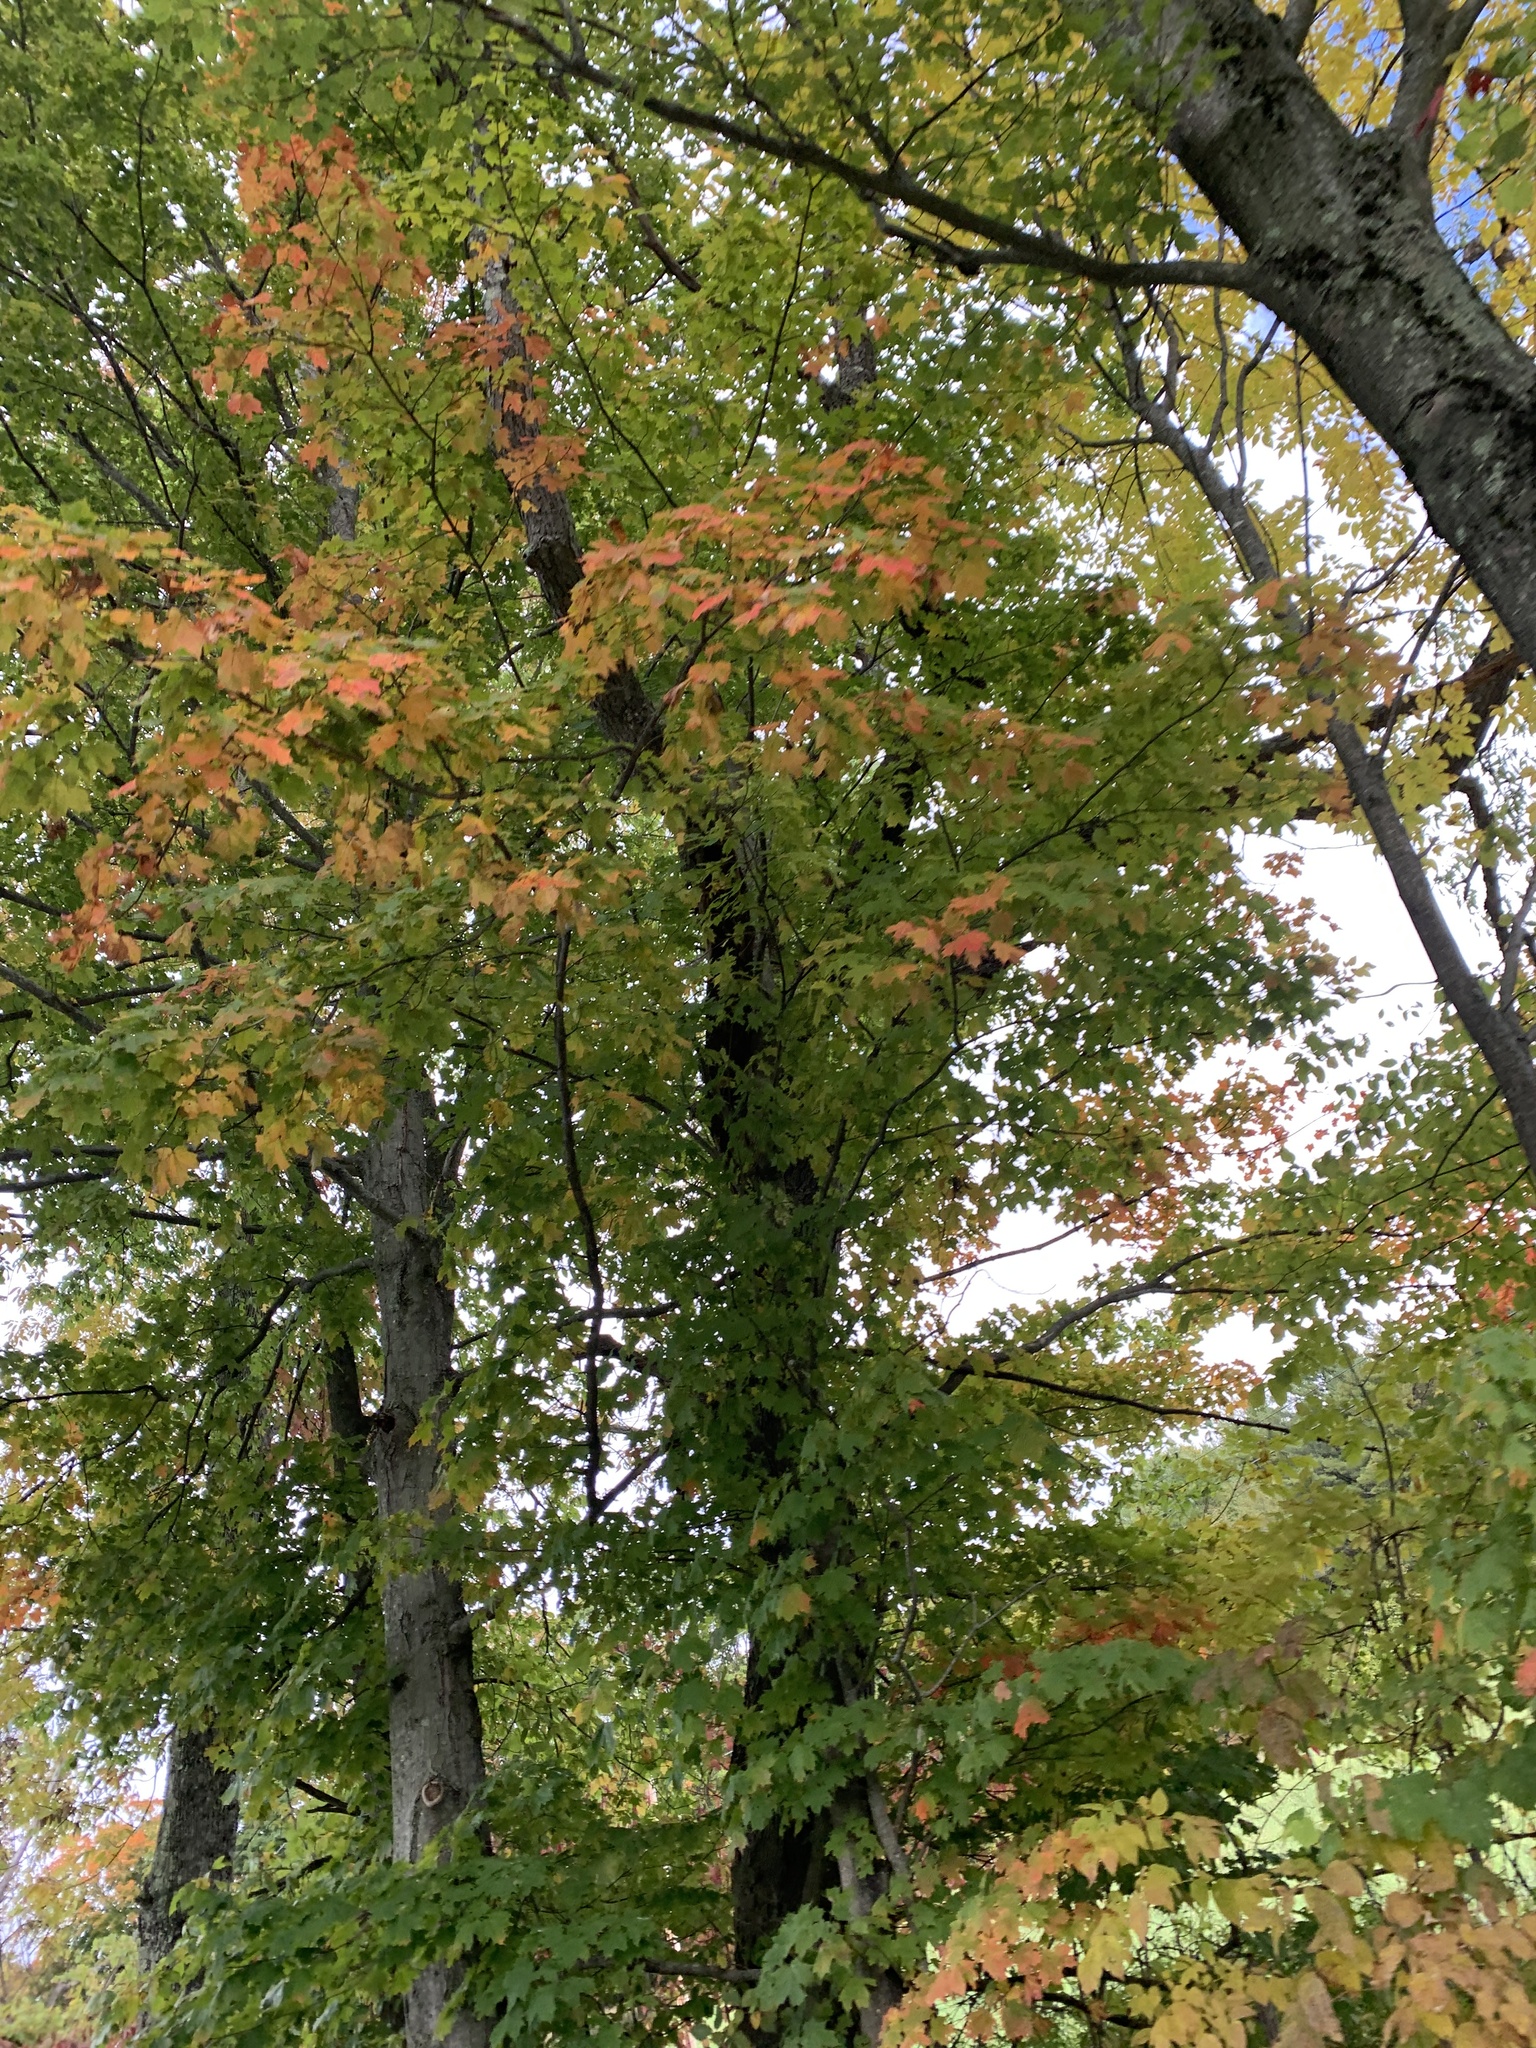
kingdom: Plantae
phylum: Tracheophyta
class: Magnoliopsida
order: Sapindales
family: Sapindaceae
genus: Acer
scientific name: Acer saccharum
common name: Sugar maple
